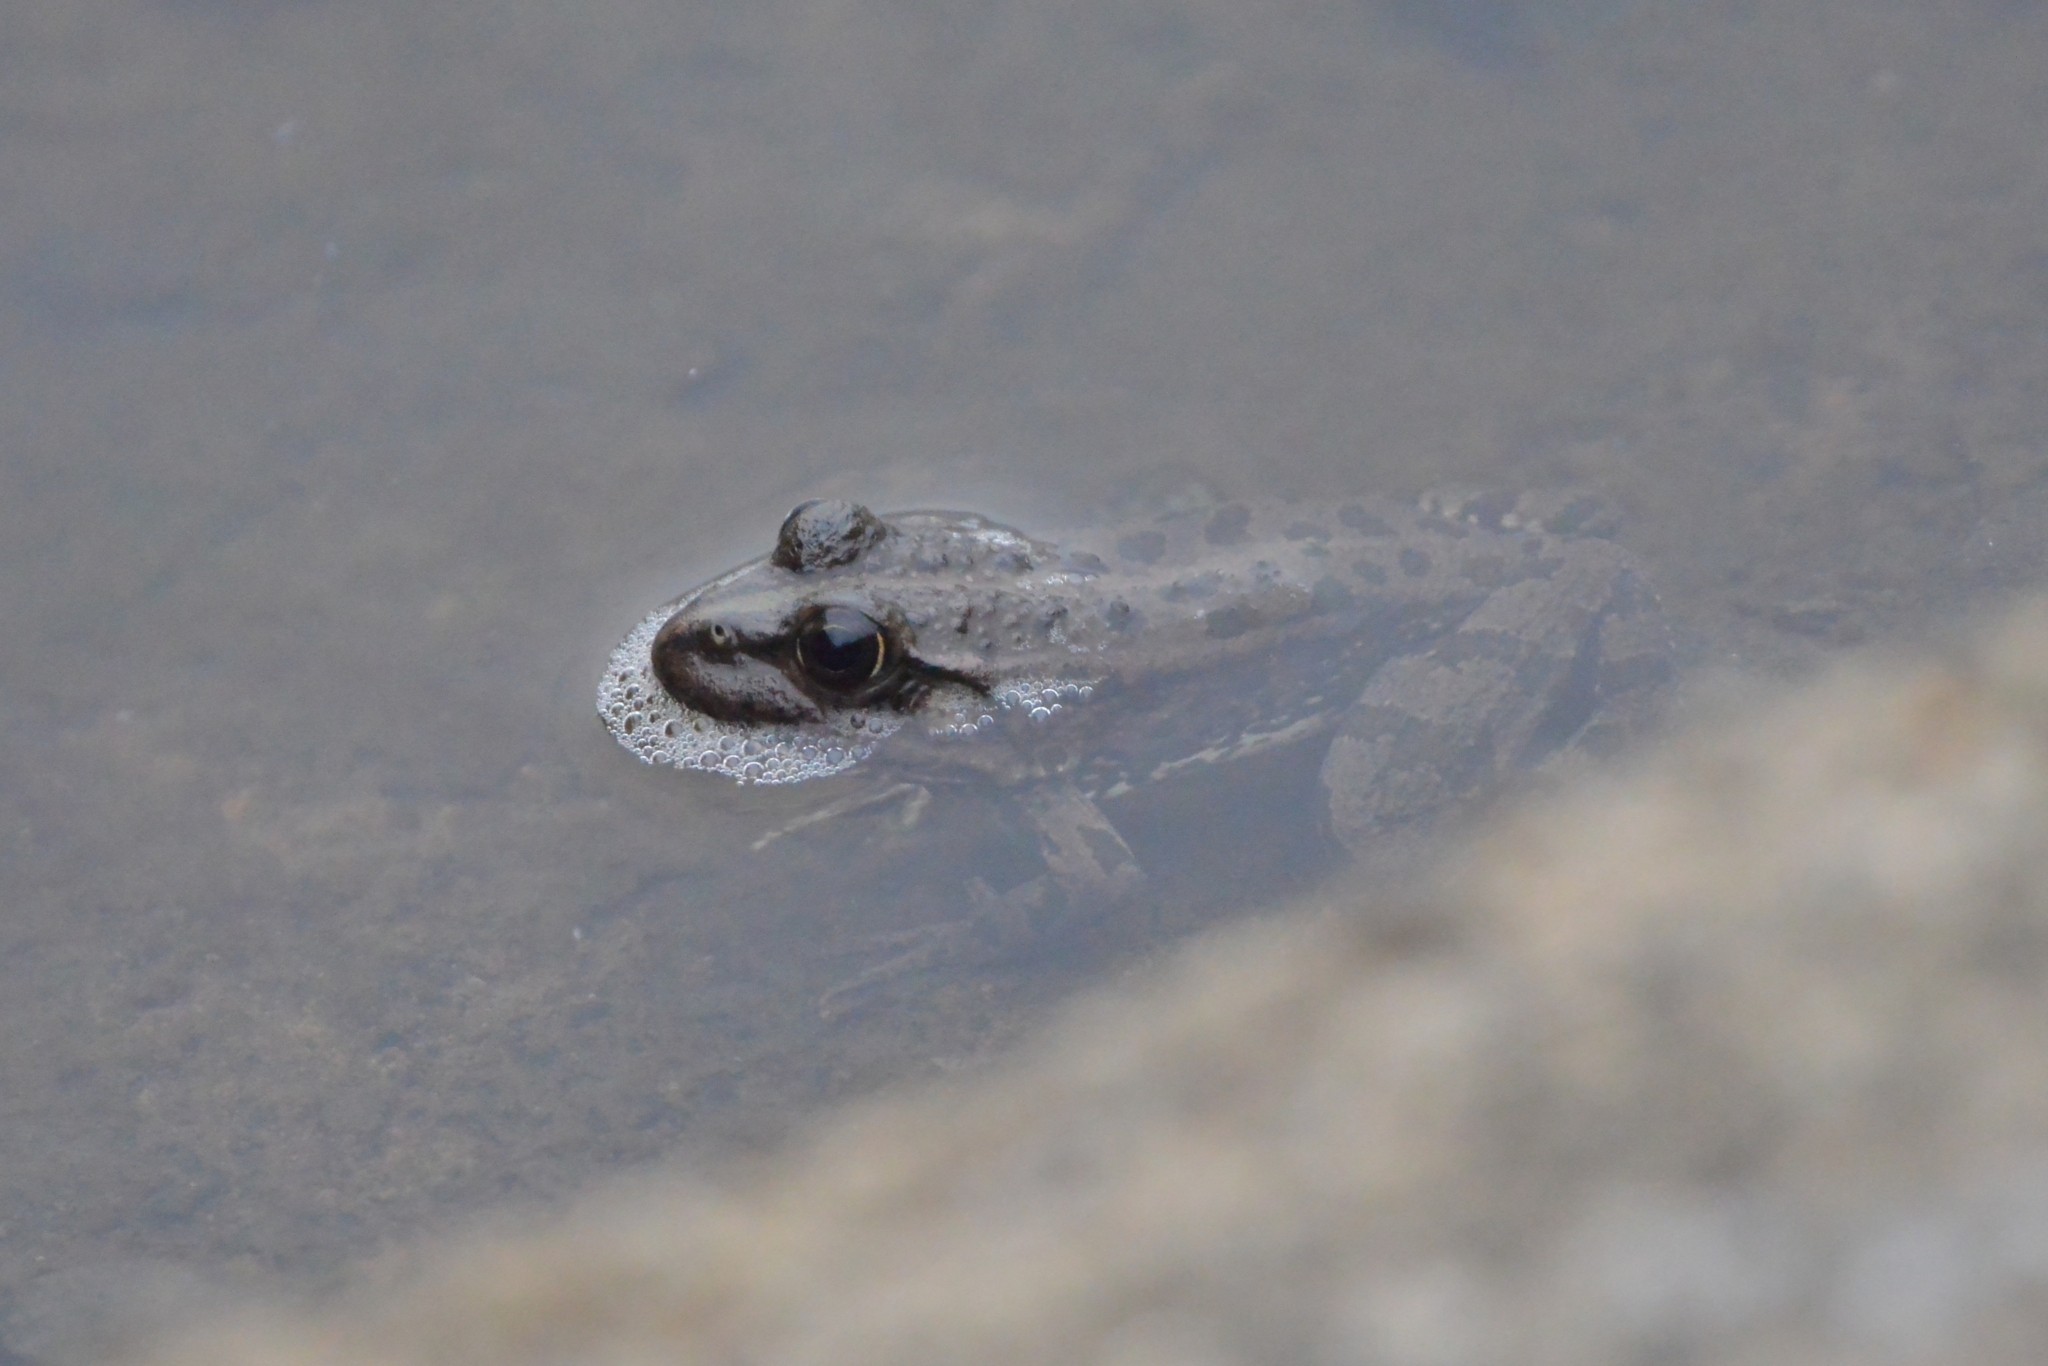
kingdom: Animalia
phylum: Chordata
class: Amphibia
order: Anura
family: Ranidae
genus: Pelophylax
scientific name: Pelophylax ridibundus
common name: Marsh frog
